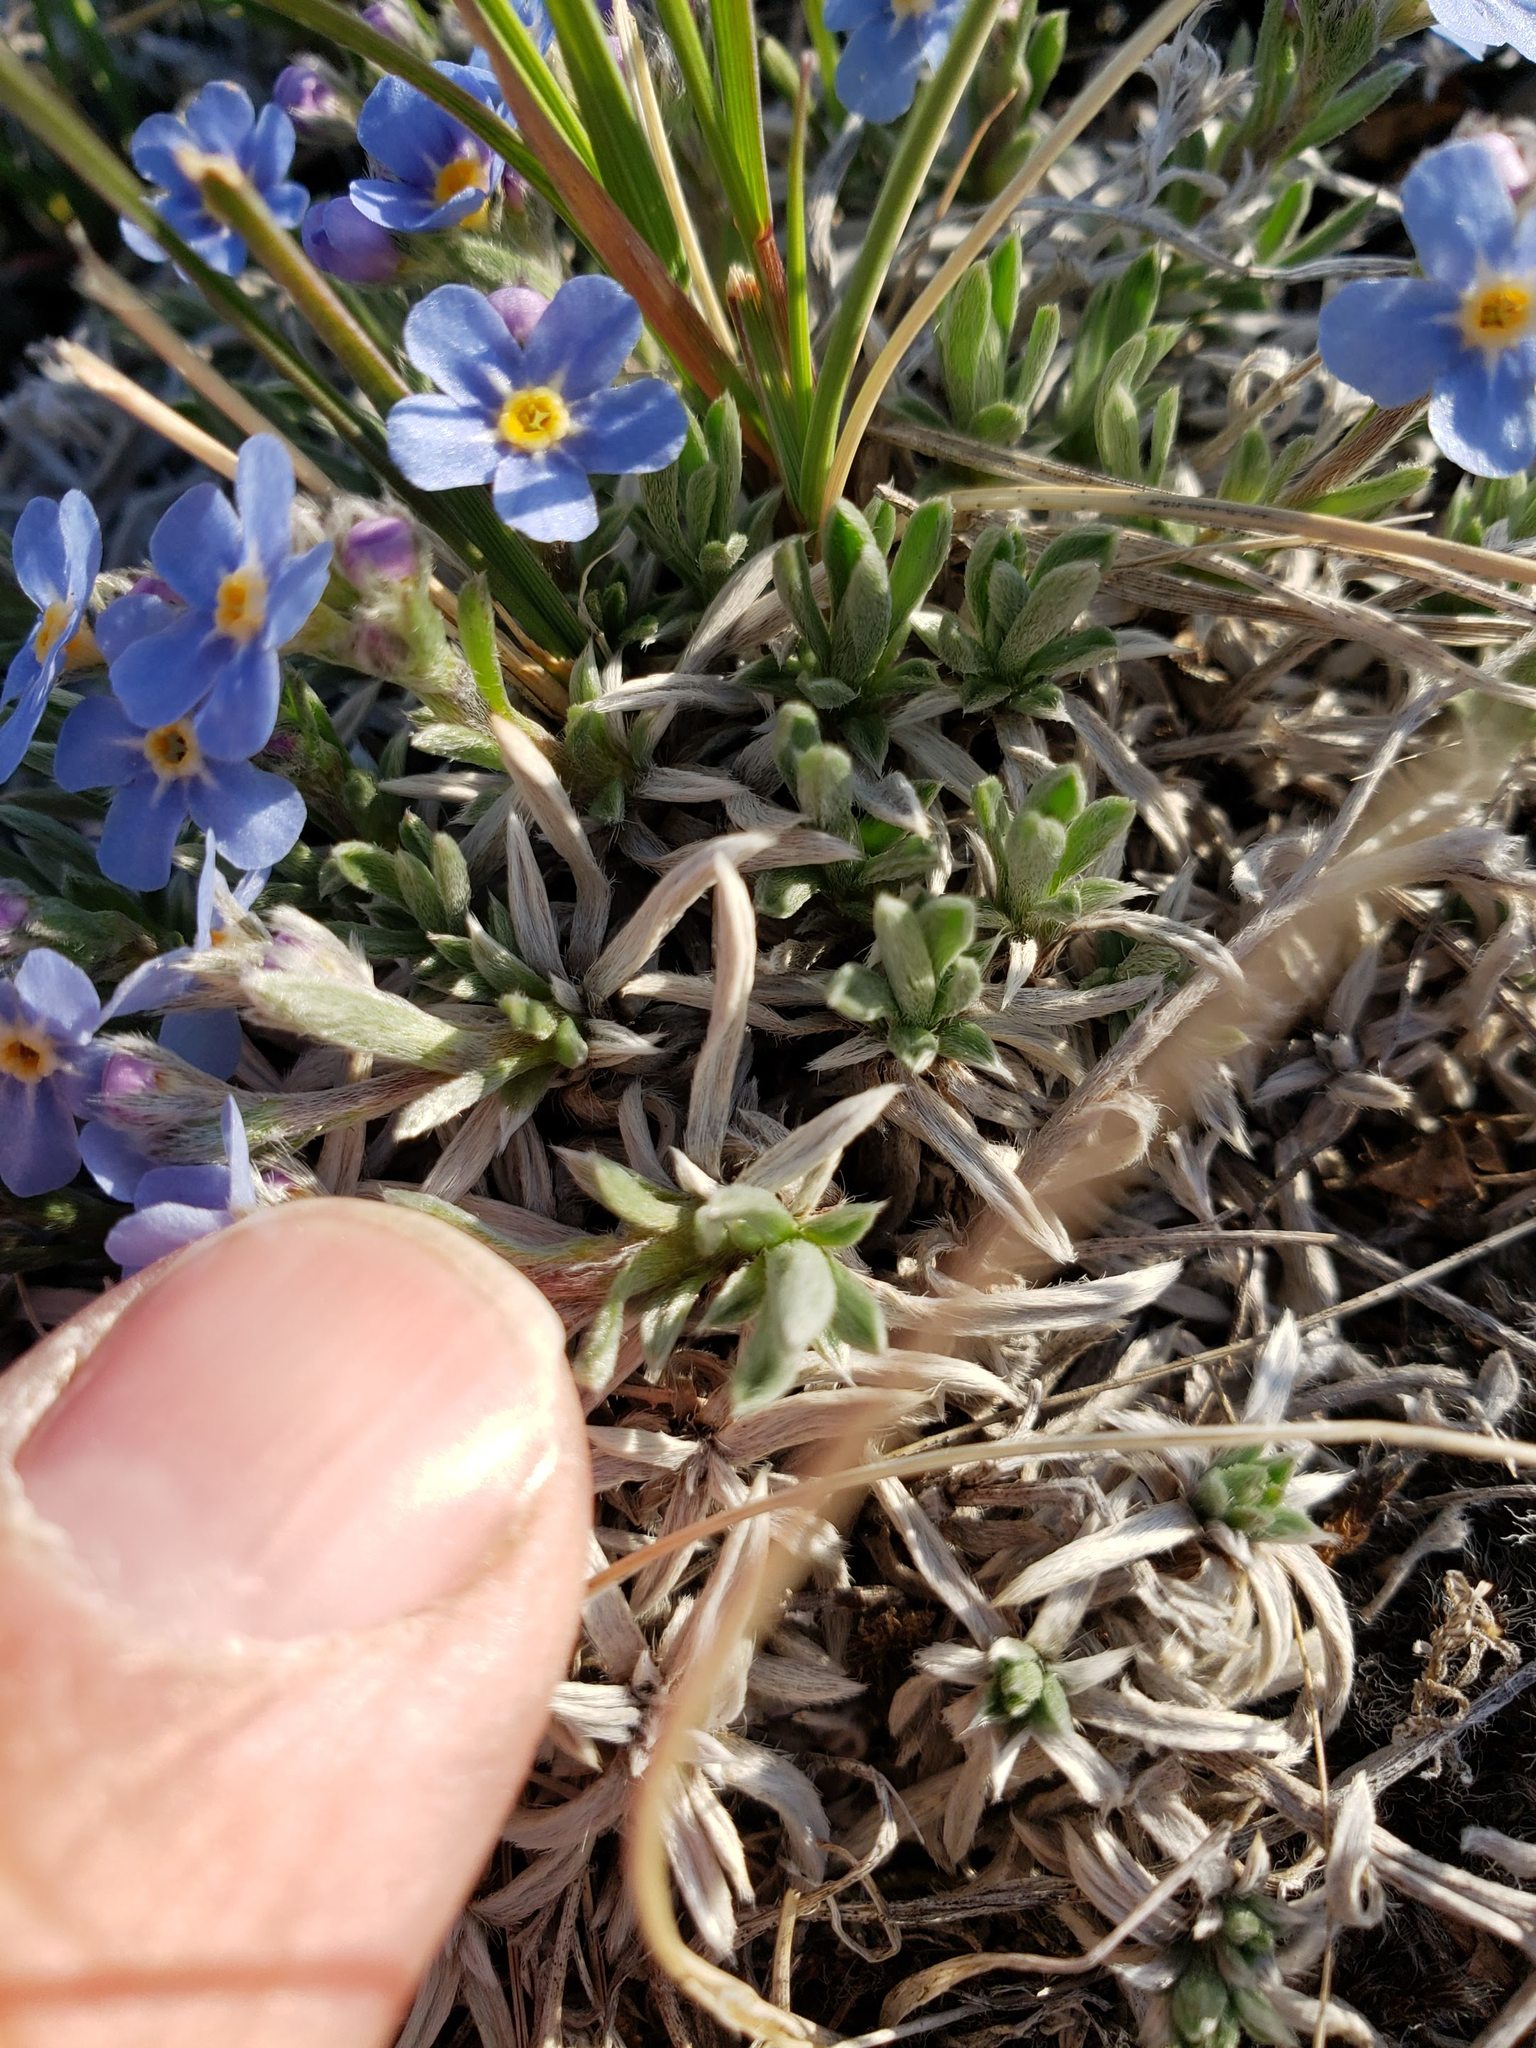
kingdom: Plantae
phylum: Tracheophyta
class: Magnoliopsida
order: Boraginales
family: Boraginaceae
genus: Eritrichium
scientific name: Eritrichium howardii
